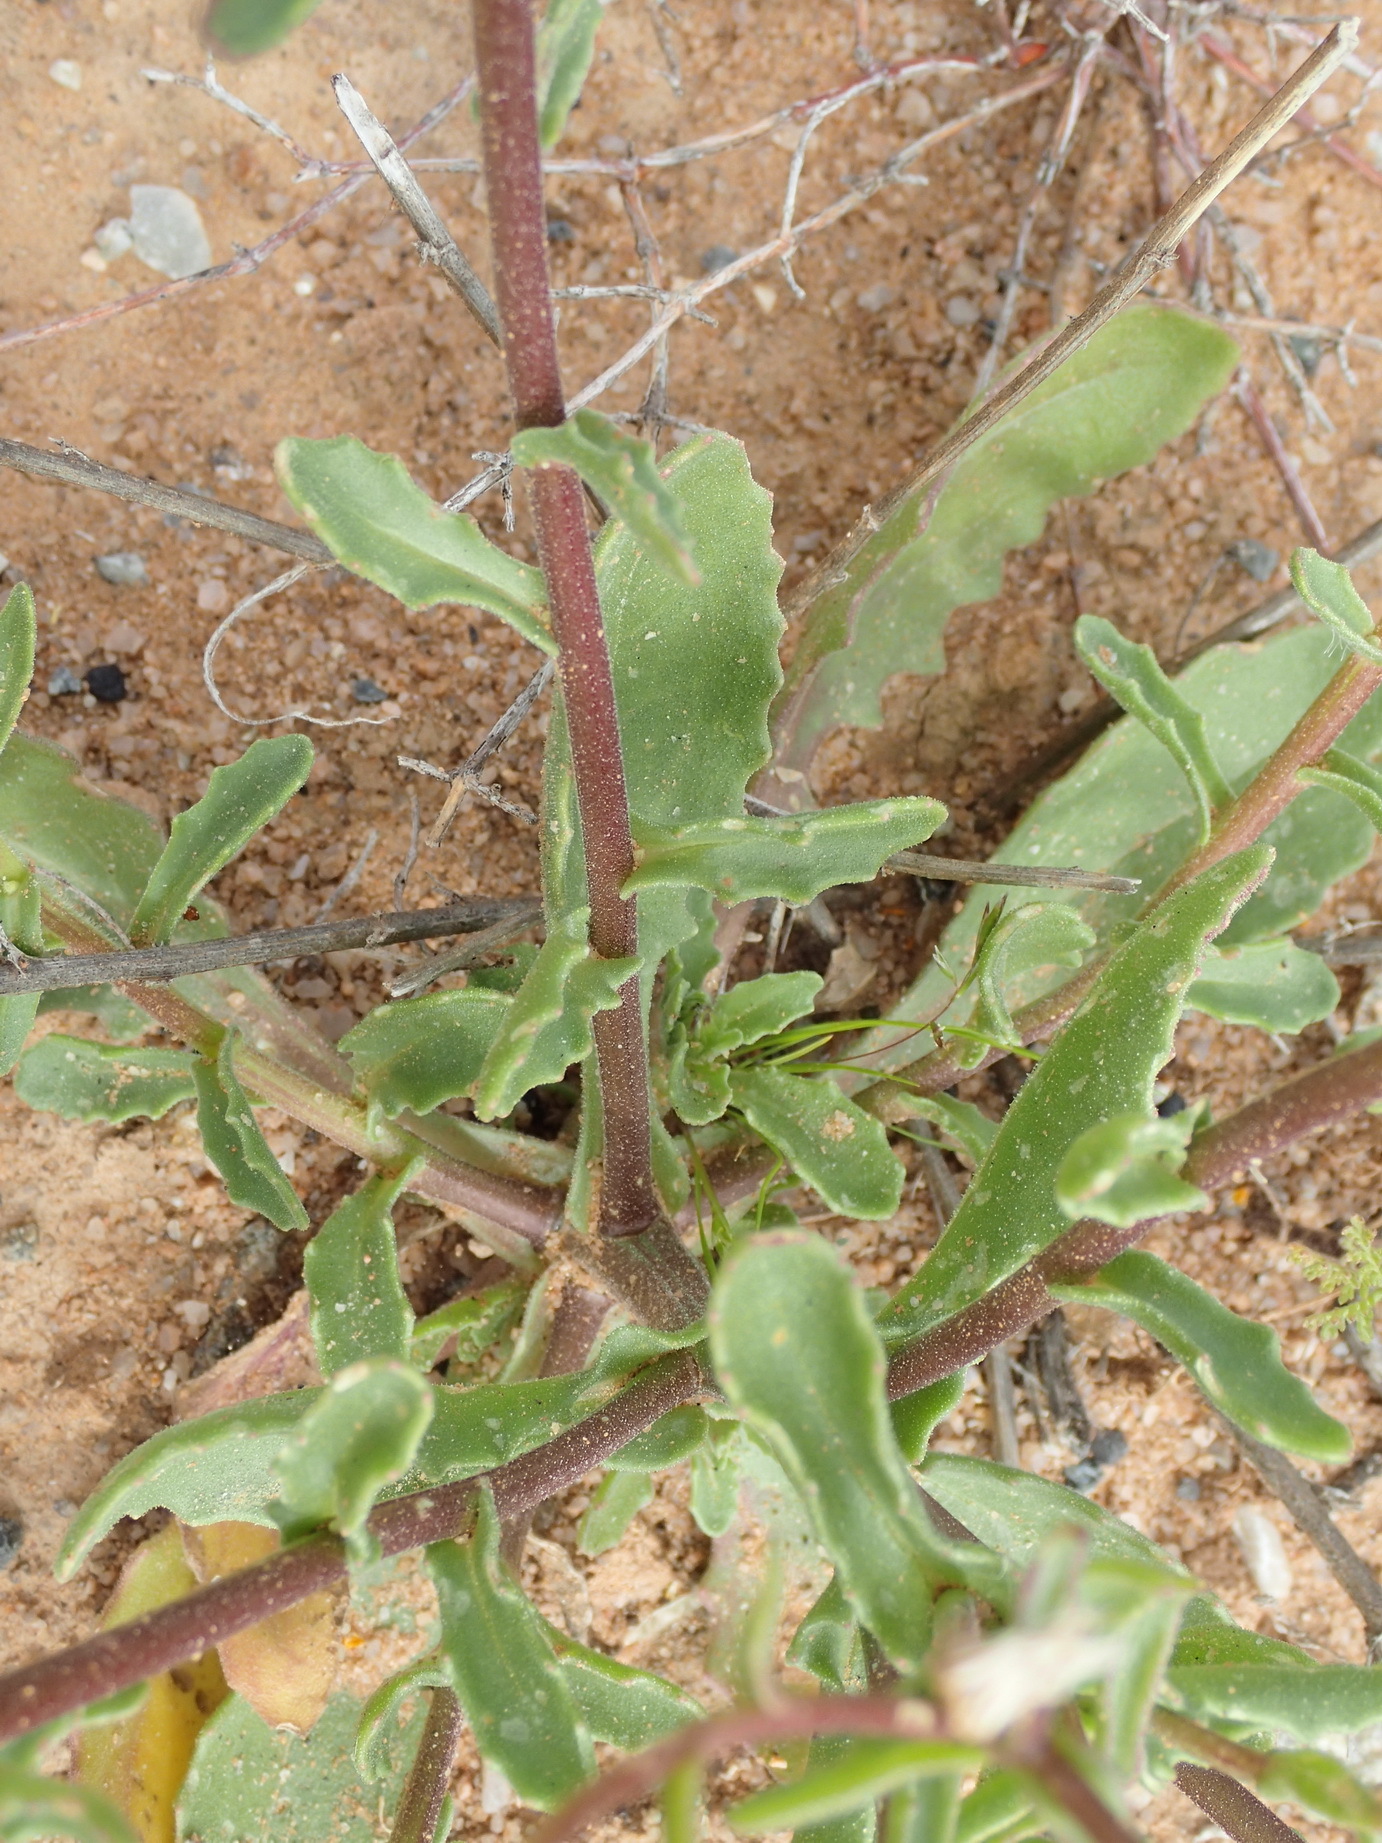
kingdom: Plantae
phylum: Tracheophyta
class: Magnoliopsida
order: Asterales
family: Asteraceae
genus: Osteospermum
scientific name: Osteospermum monstrosum
